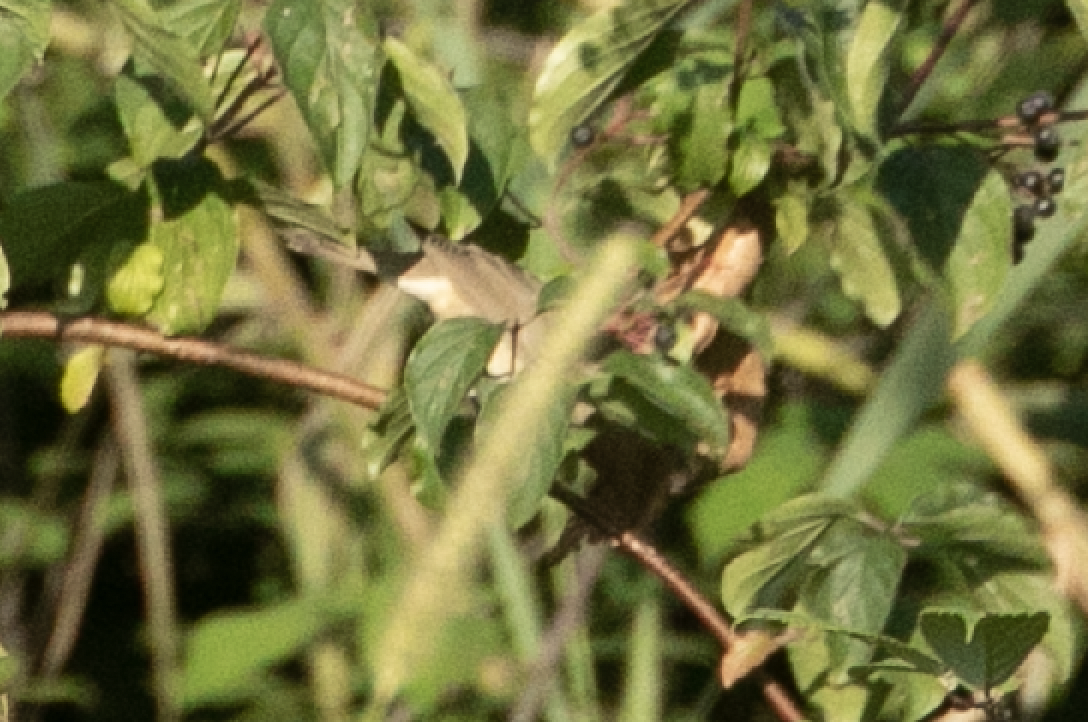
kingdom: Animalia
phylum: Chordata
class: Aves
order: Passeriformes
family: Sylviidae
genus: Sylvia
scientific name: Sylvia borin
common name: Garden warbler
